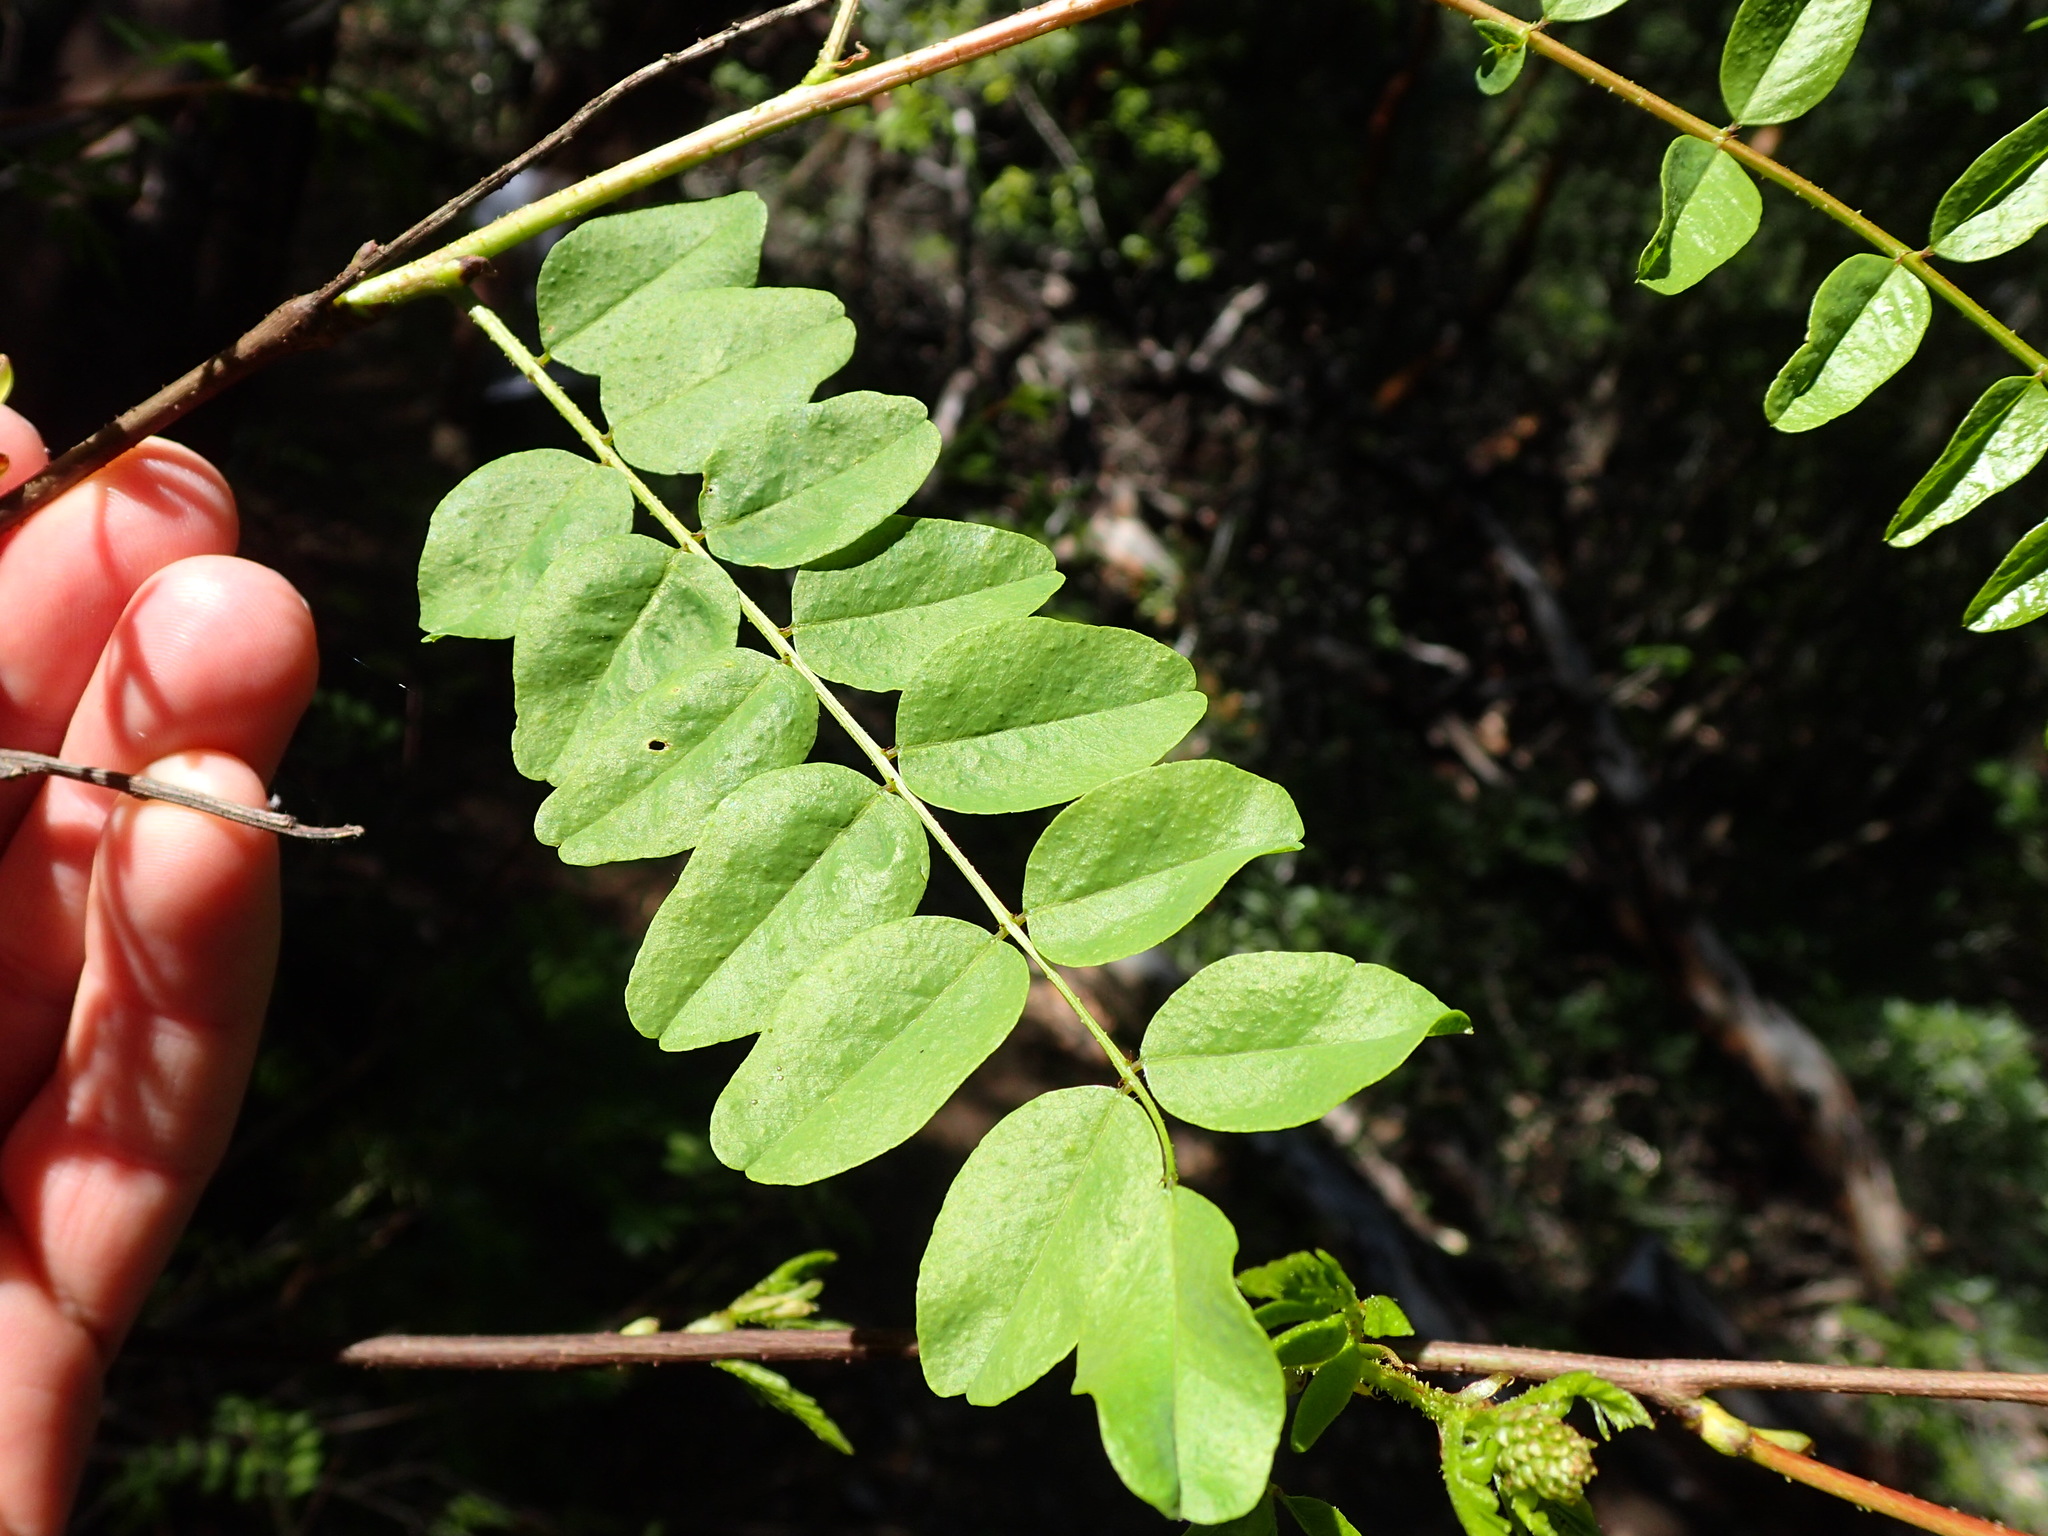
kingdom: Plantae
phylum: Tracheophyta
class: Magnoliopsida
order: Fabales
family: Fabaceae
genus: Amorpha
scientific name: Amorpha californica
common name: California indigobush
